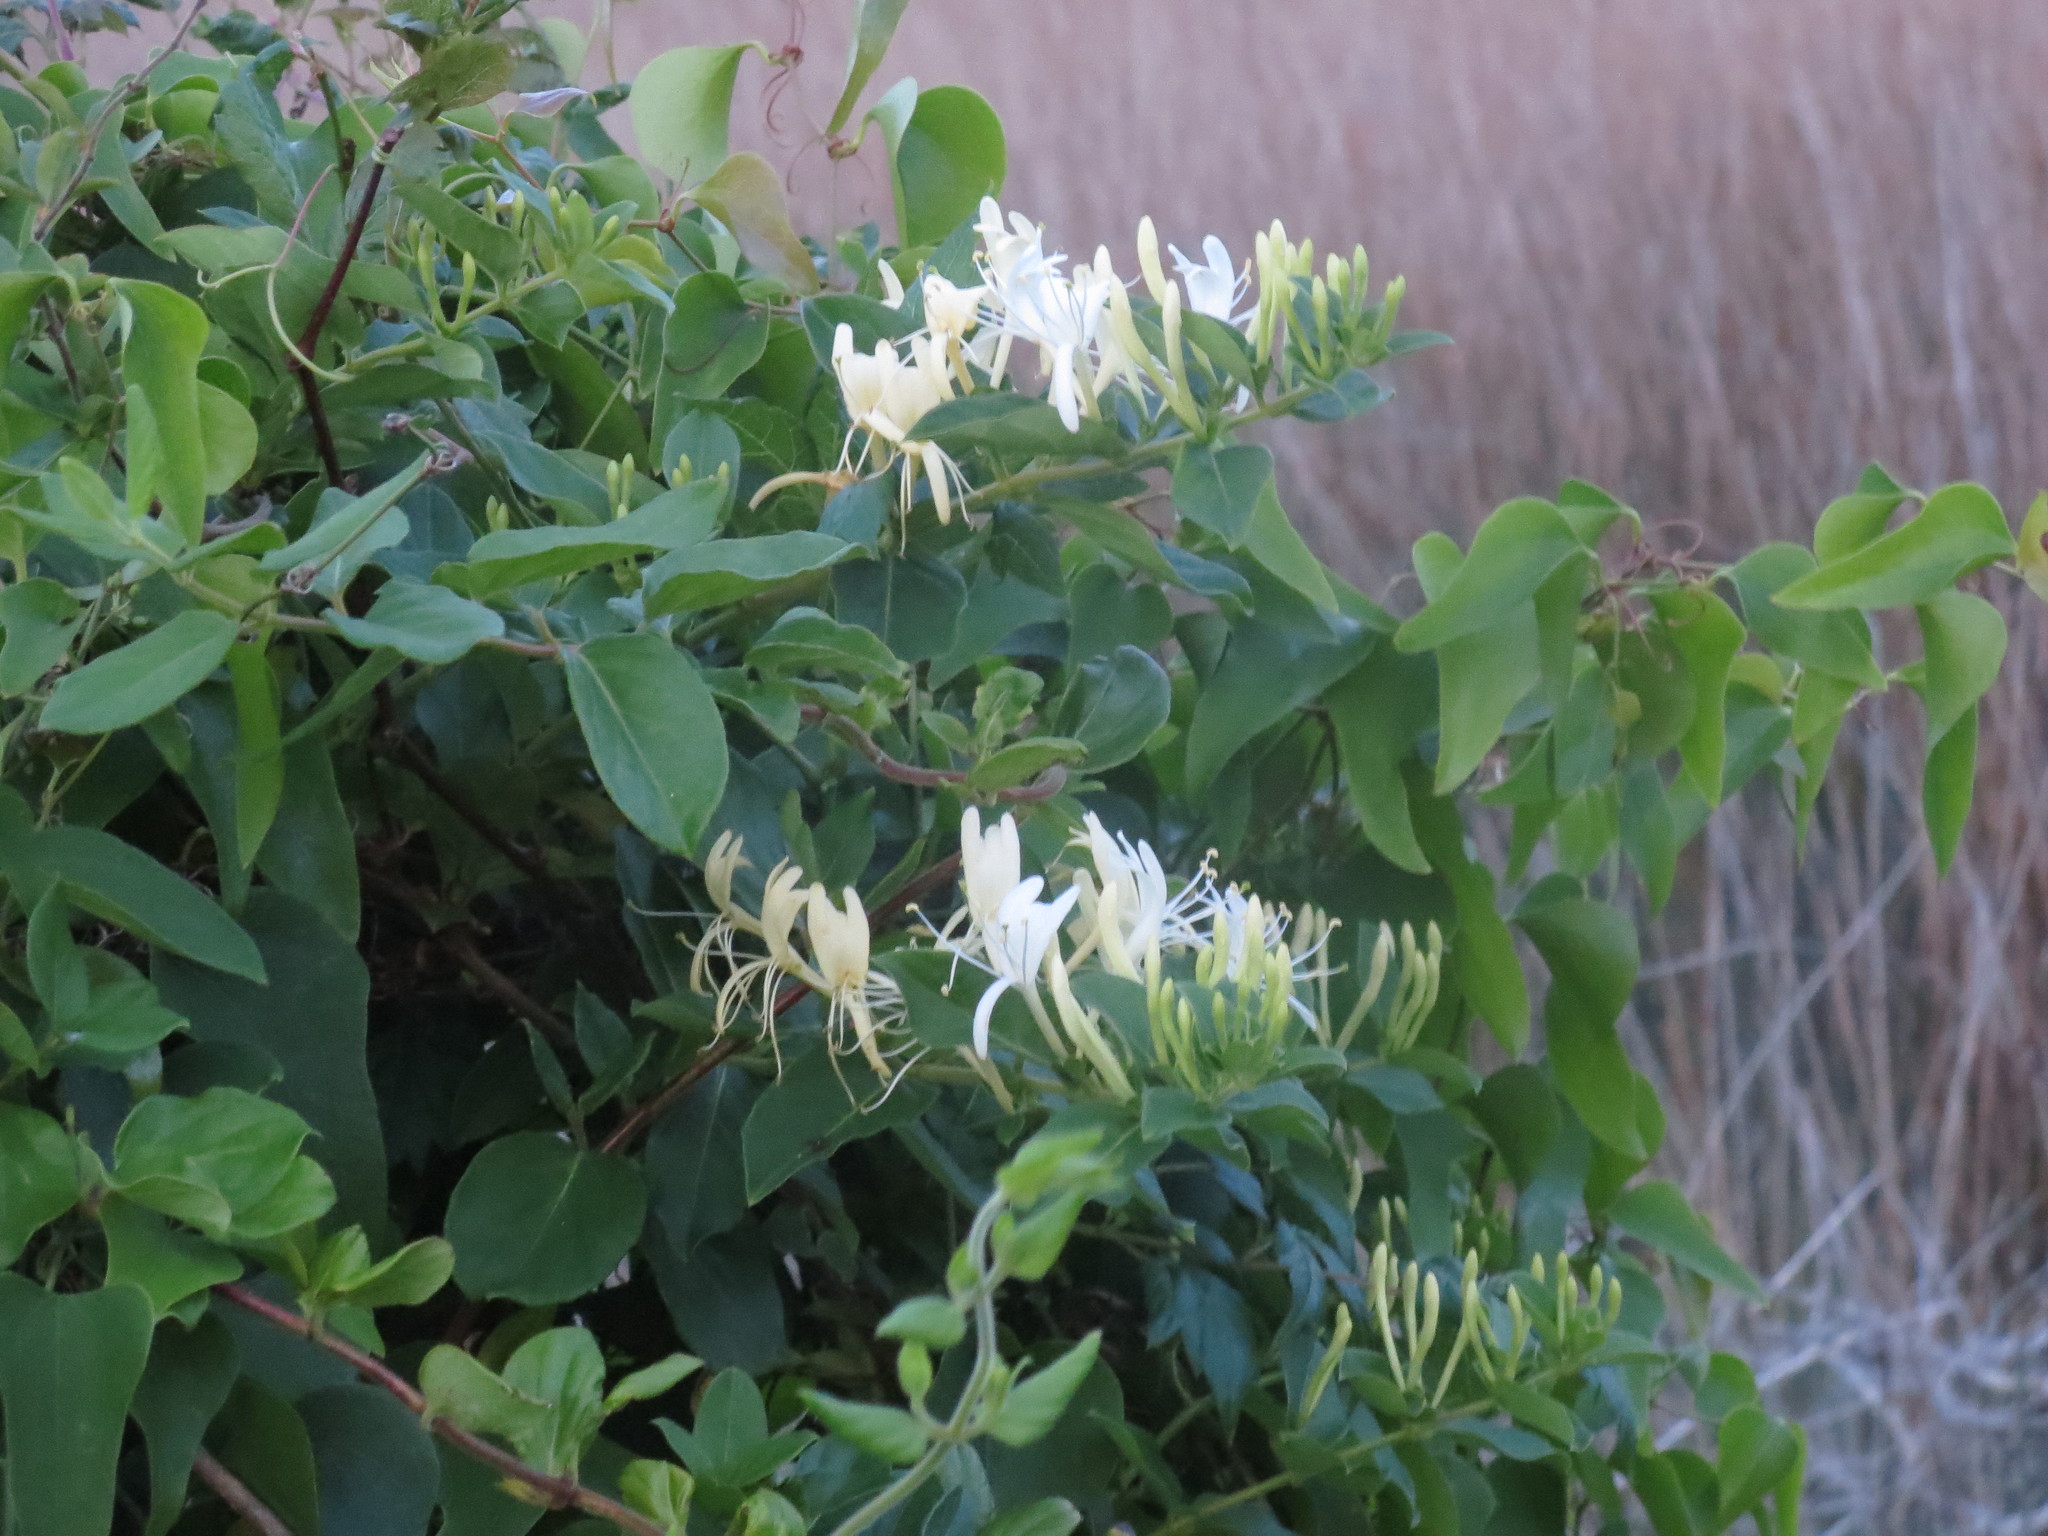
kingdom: Plantae
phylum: Tracheophyta
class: Magnoliopsida
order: Dipsacales
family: Caprifoliaceae
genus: Lonicera
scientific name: Lonicera japonica
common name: Japanese honeysuckle
